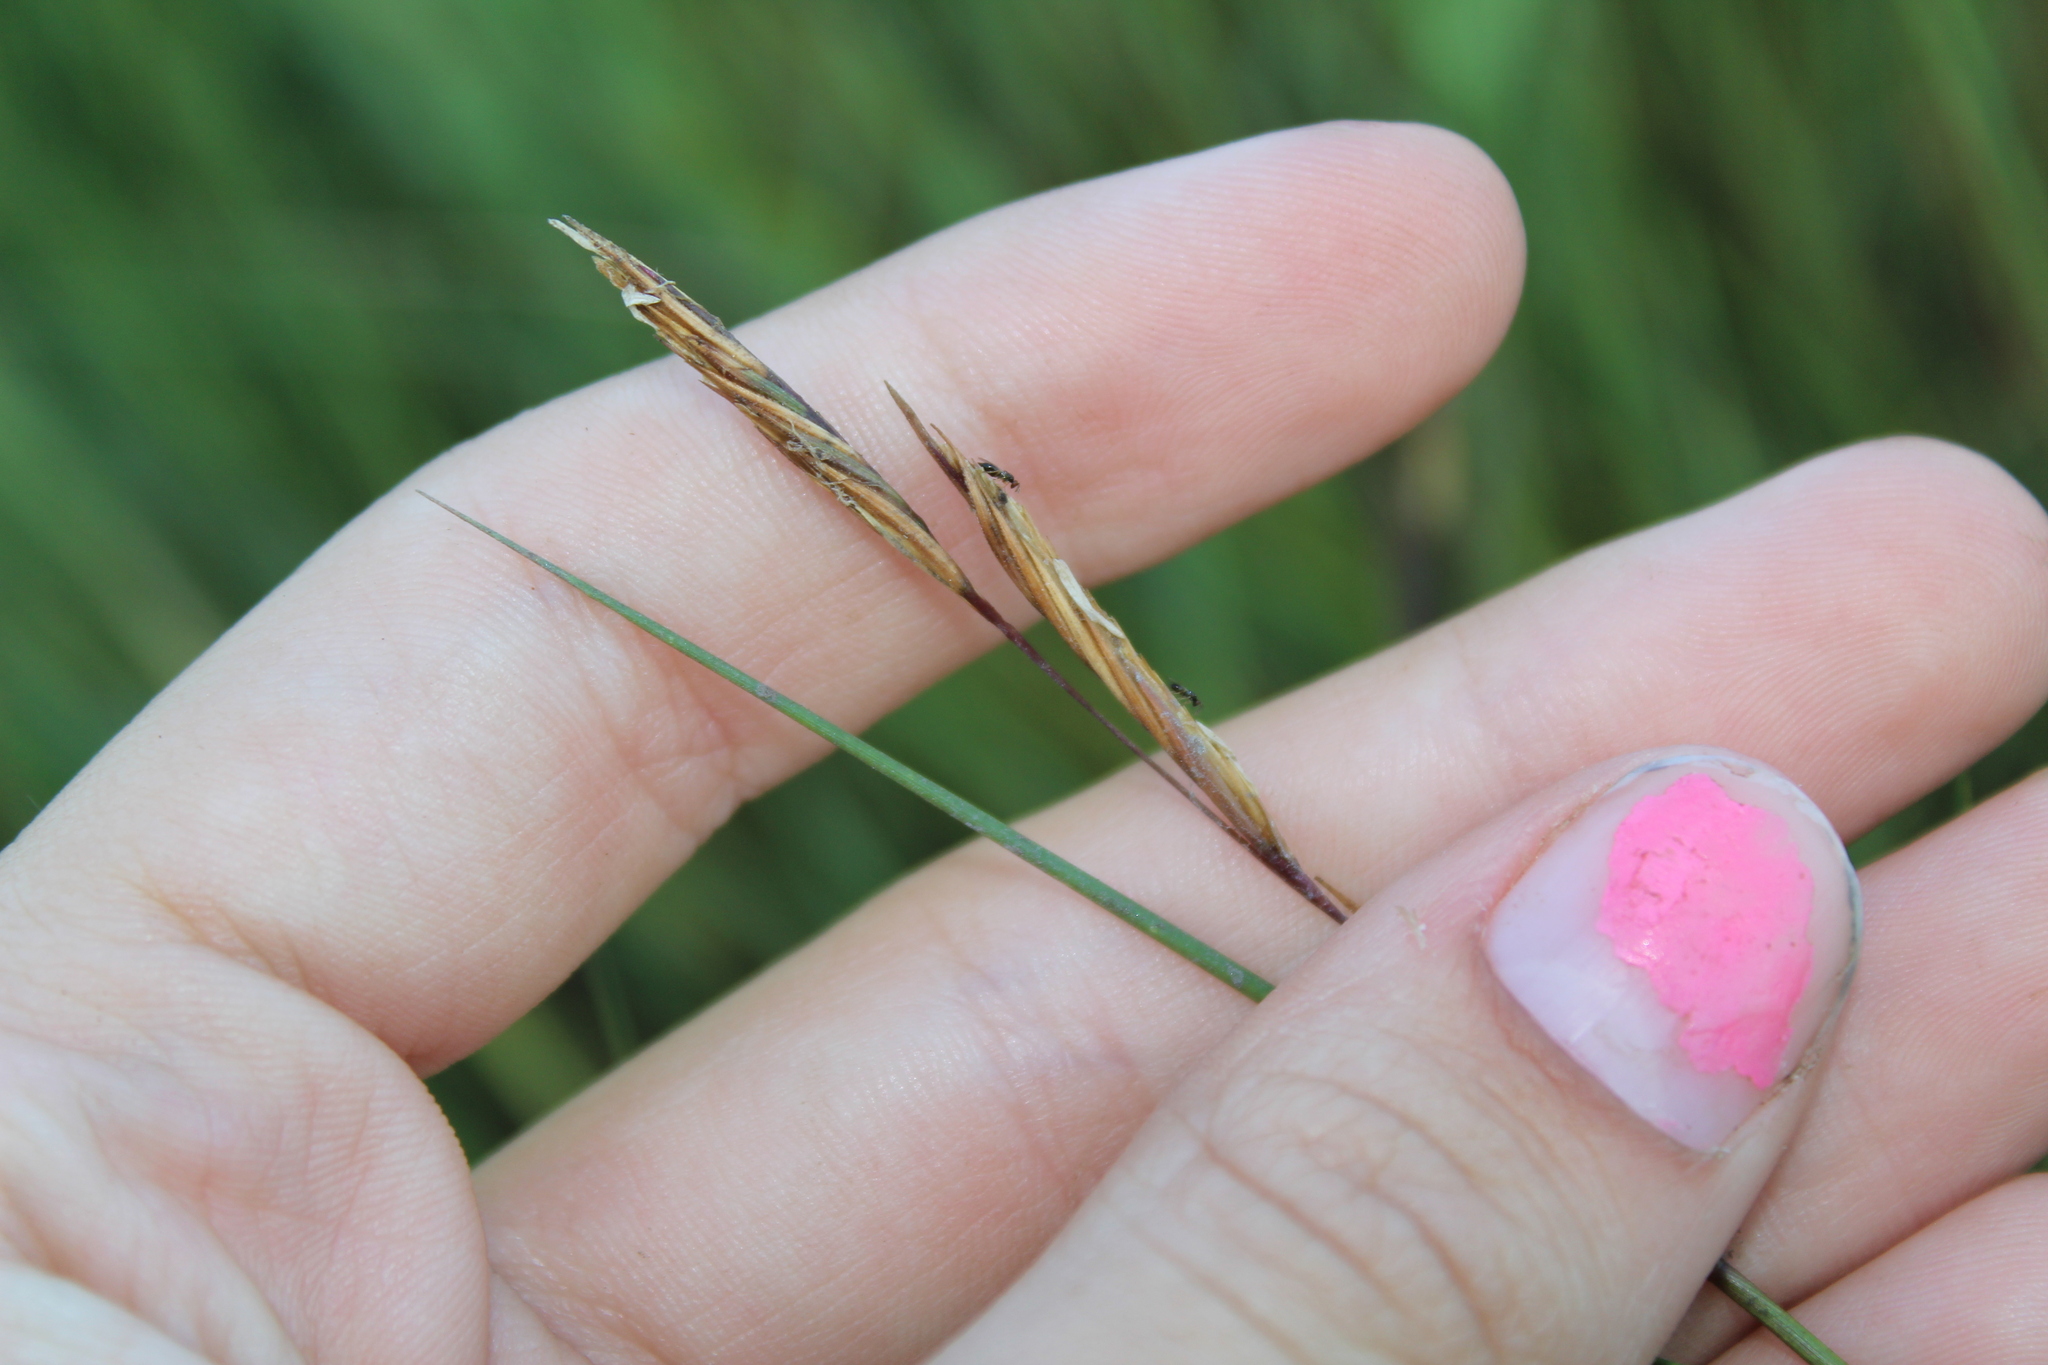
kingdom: Plantae
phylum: Tracheophyta
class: Liliopsida
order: Poales
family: Poaceae
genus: Sporobolus
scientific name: Sporobolus pumilus
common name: Highwater grass
